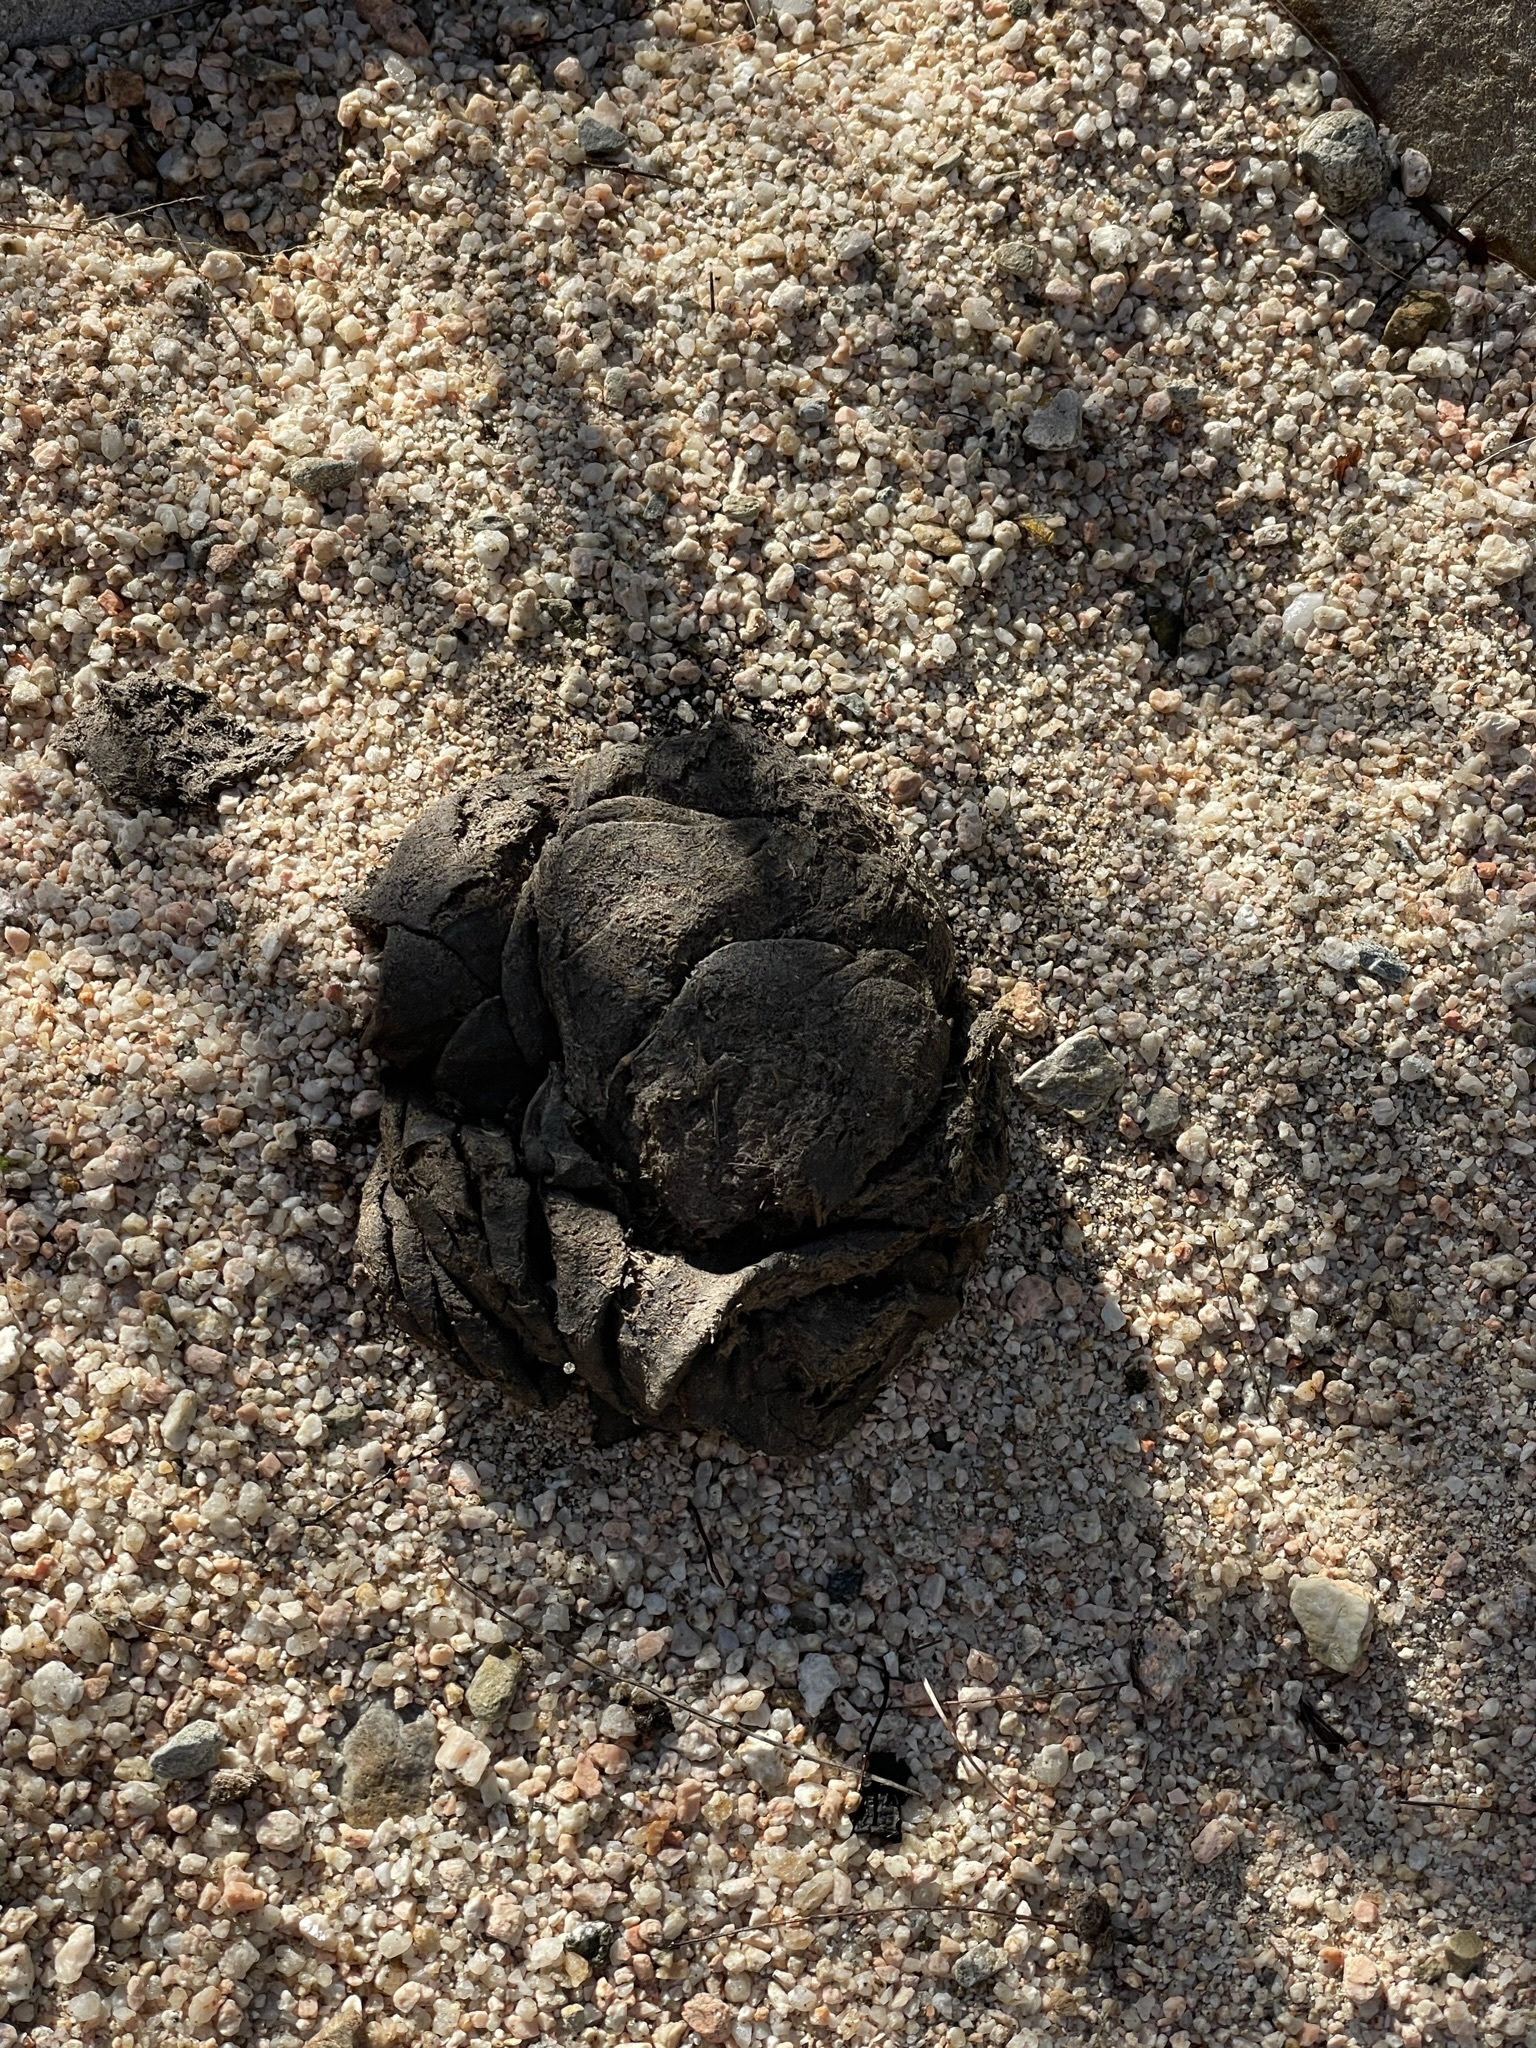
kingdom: Animalia
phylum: Chordata
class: Mammalia
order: Artiodactyla
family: Bovidae
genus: Bos
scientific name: Bos taurus
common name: Domesticated cattle
